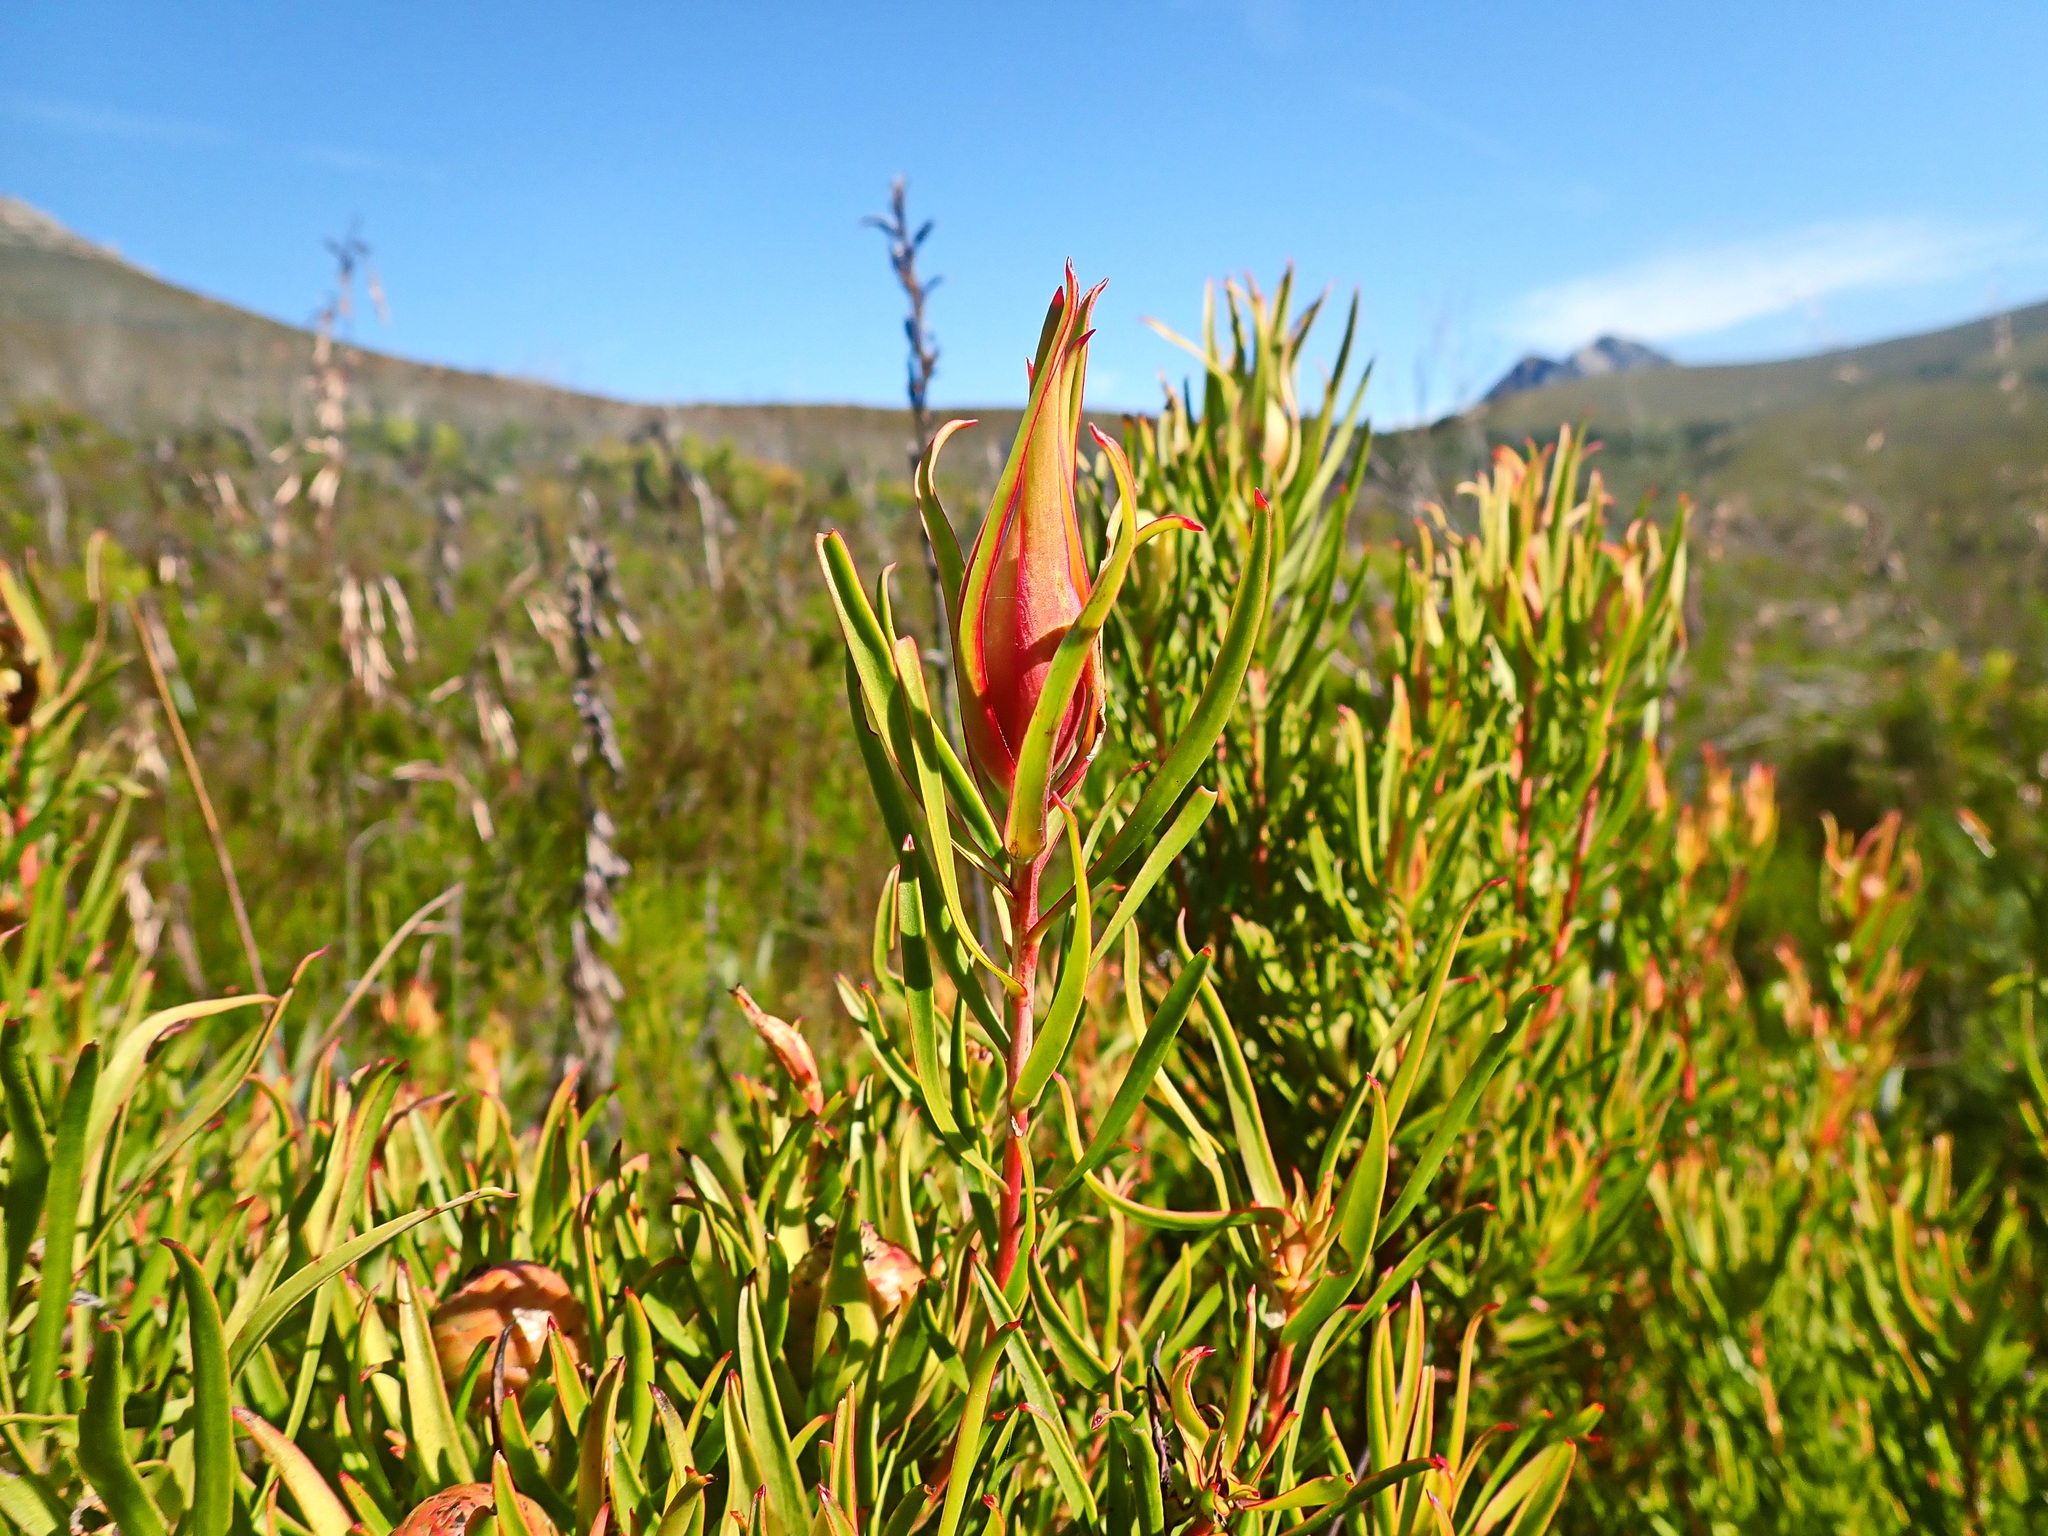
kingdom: Plantae
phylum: Tracheophyta
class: Magnoliopsida
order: Proteales
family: Proteaceae
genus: Leucadendron
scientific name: Leucadendron spissifolium
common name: Spear-leaf conebush
